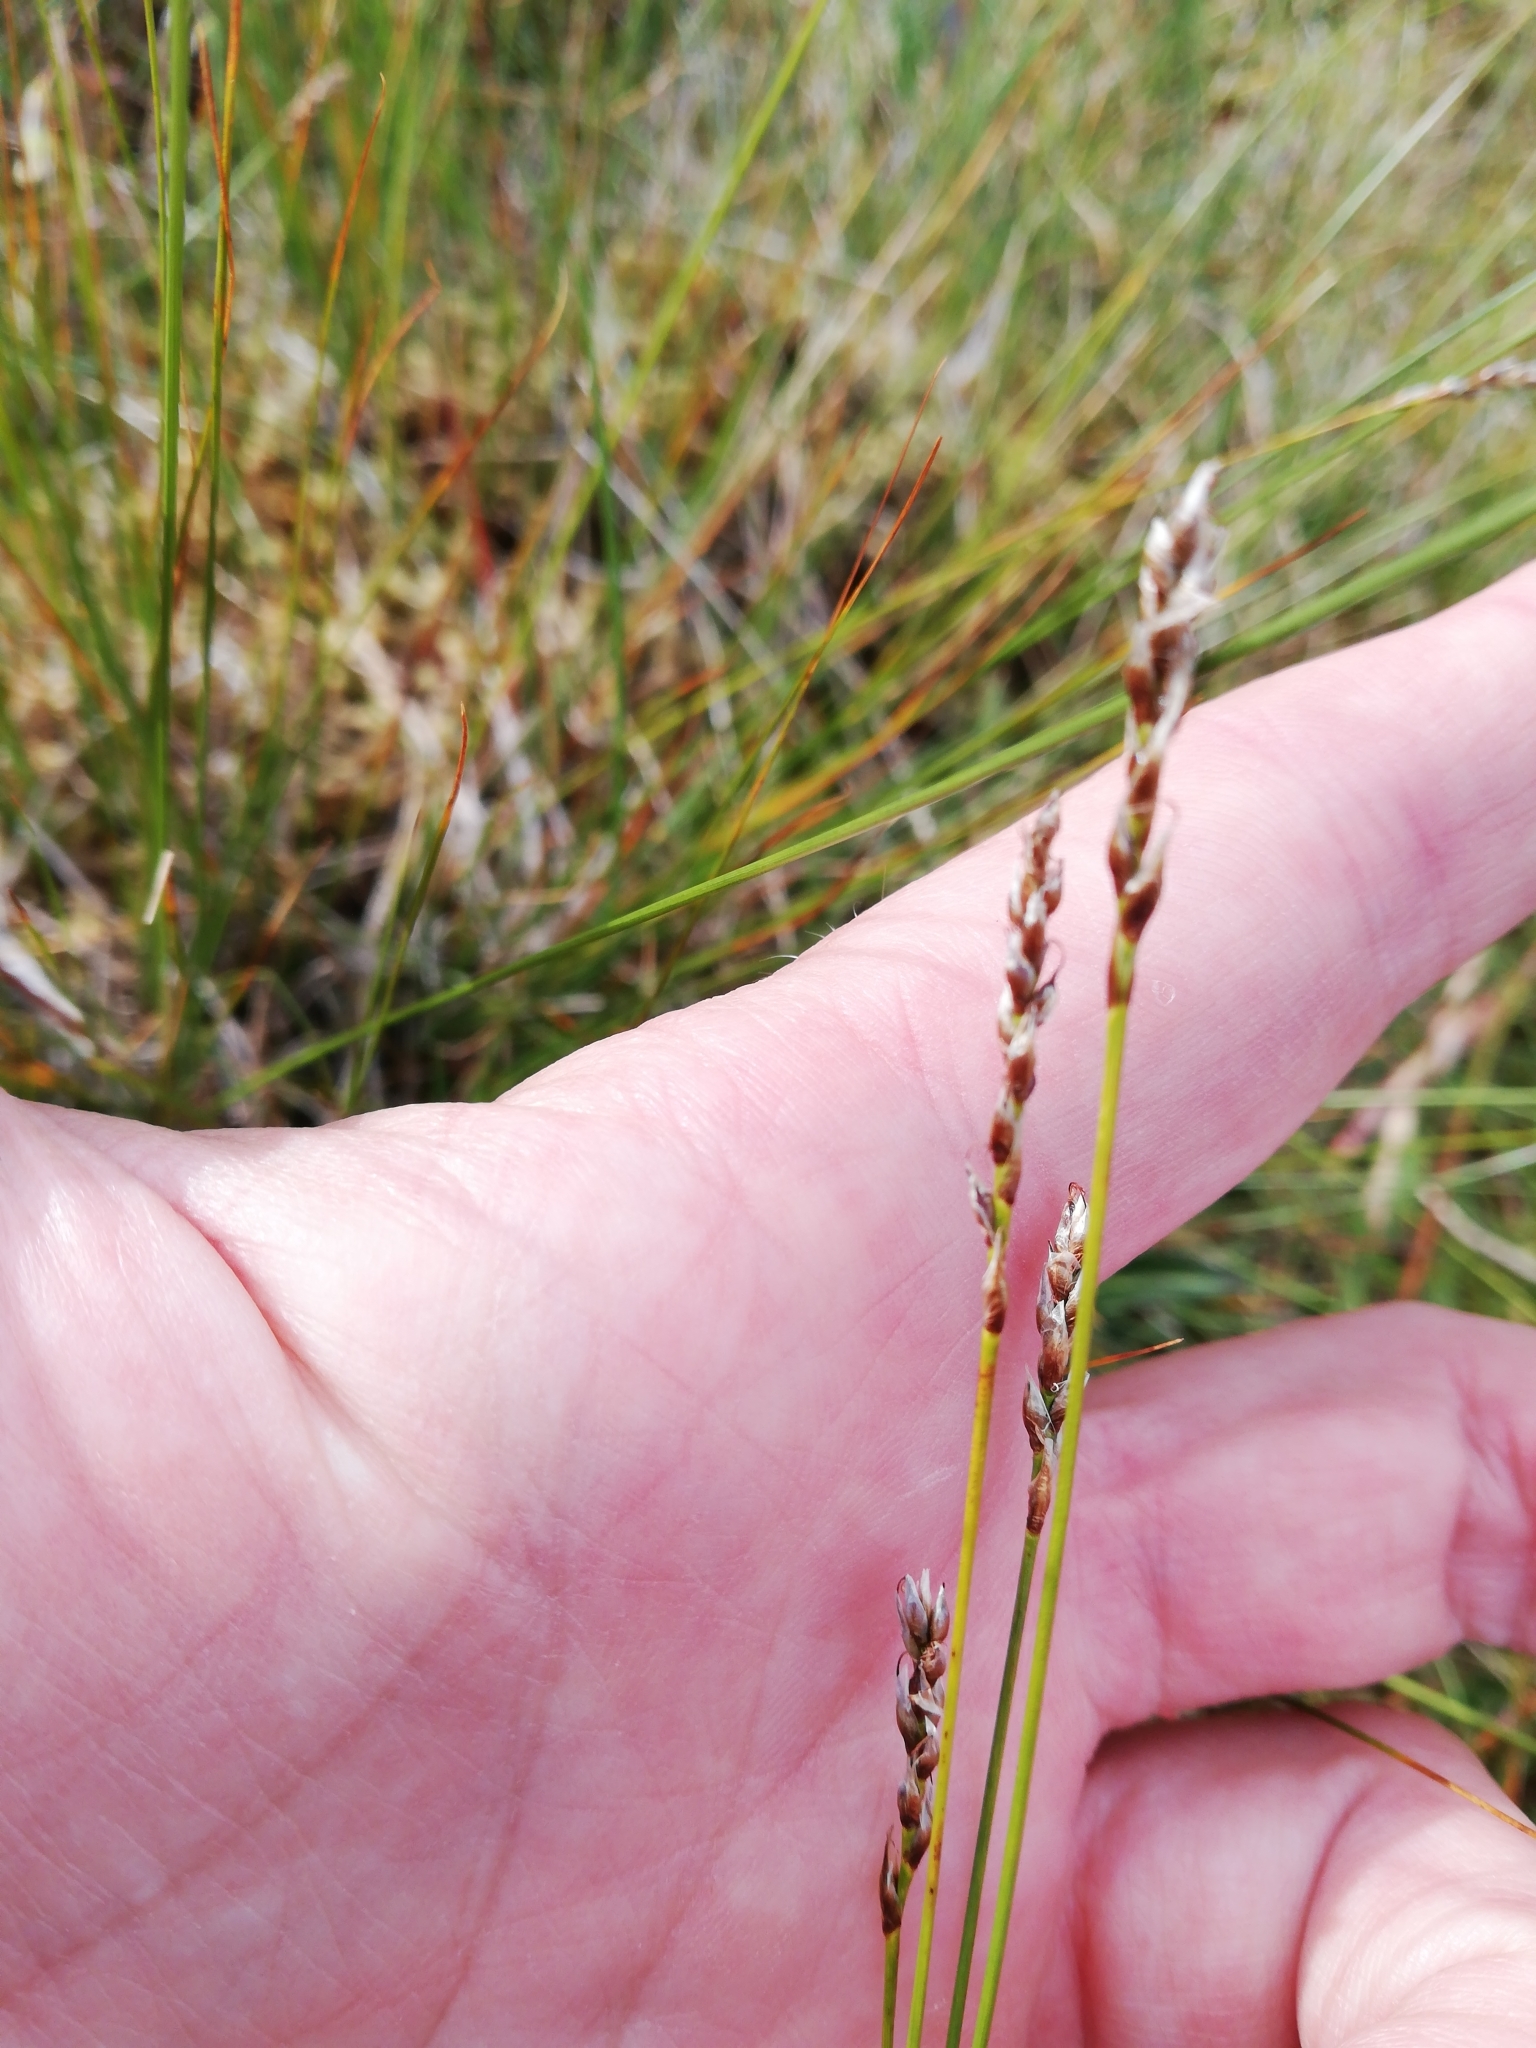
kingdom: Plantae
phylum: Tracheophyta
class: Liliopsida
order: Poales
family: Cyperaceae
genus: Carex
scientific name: Carex myosuroides
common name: Bellard's bog sedge
